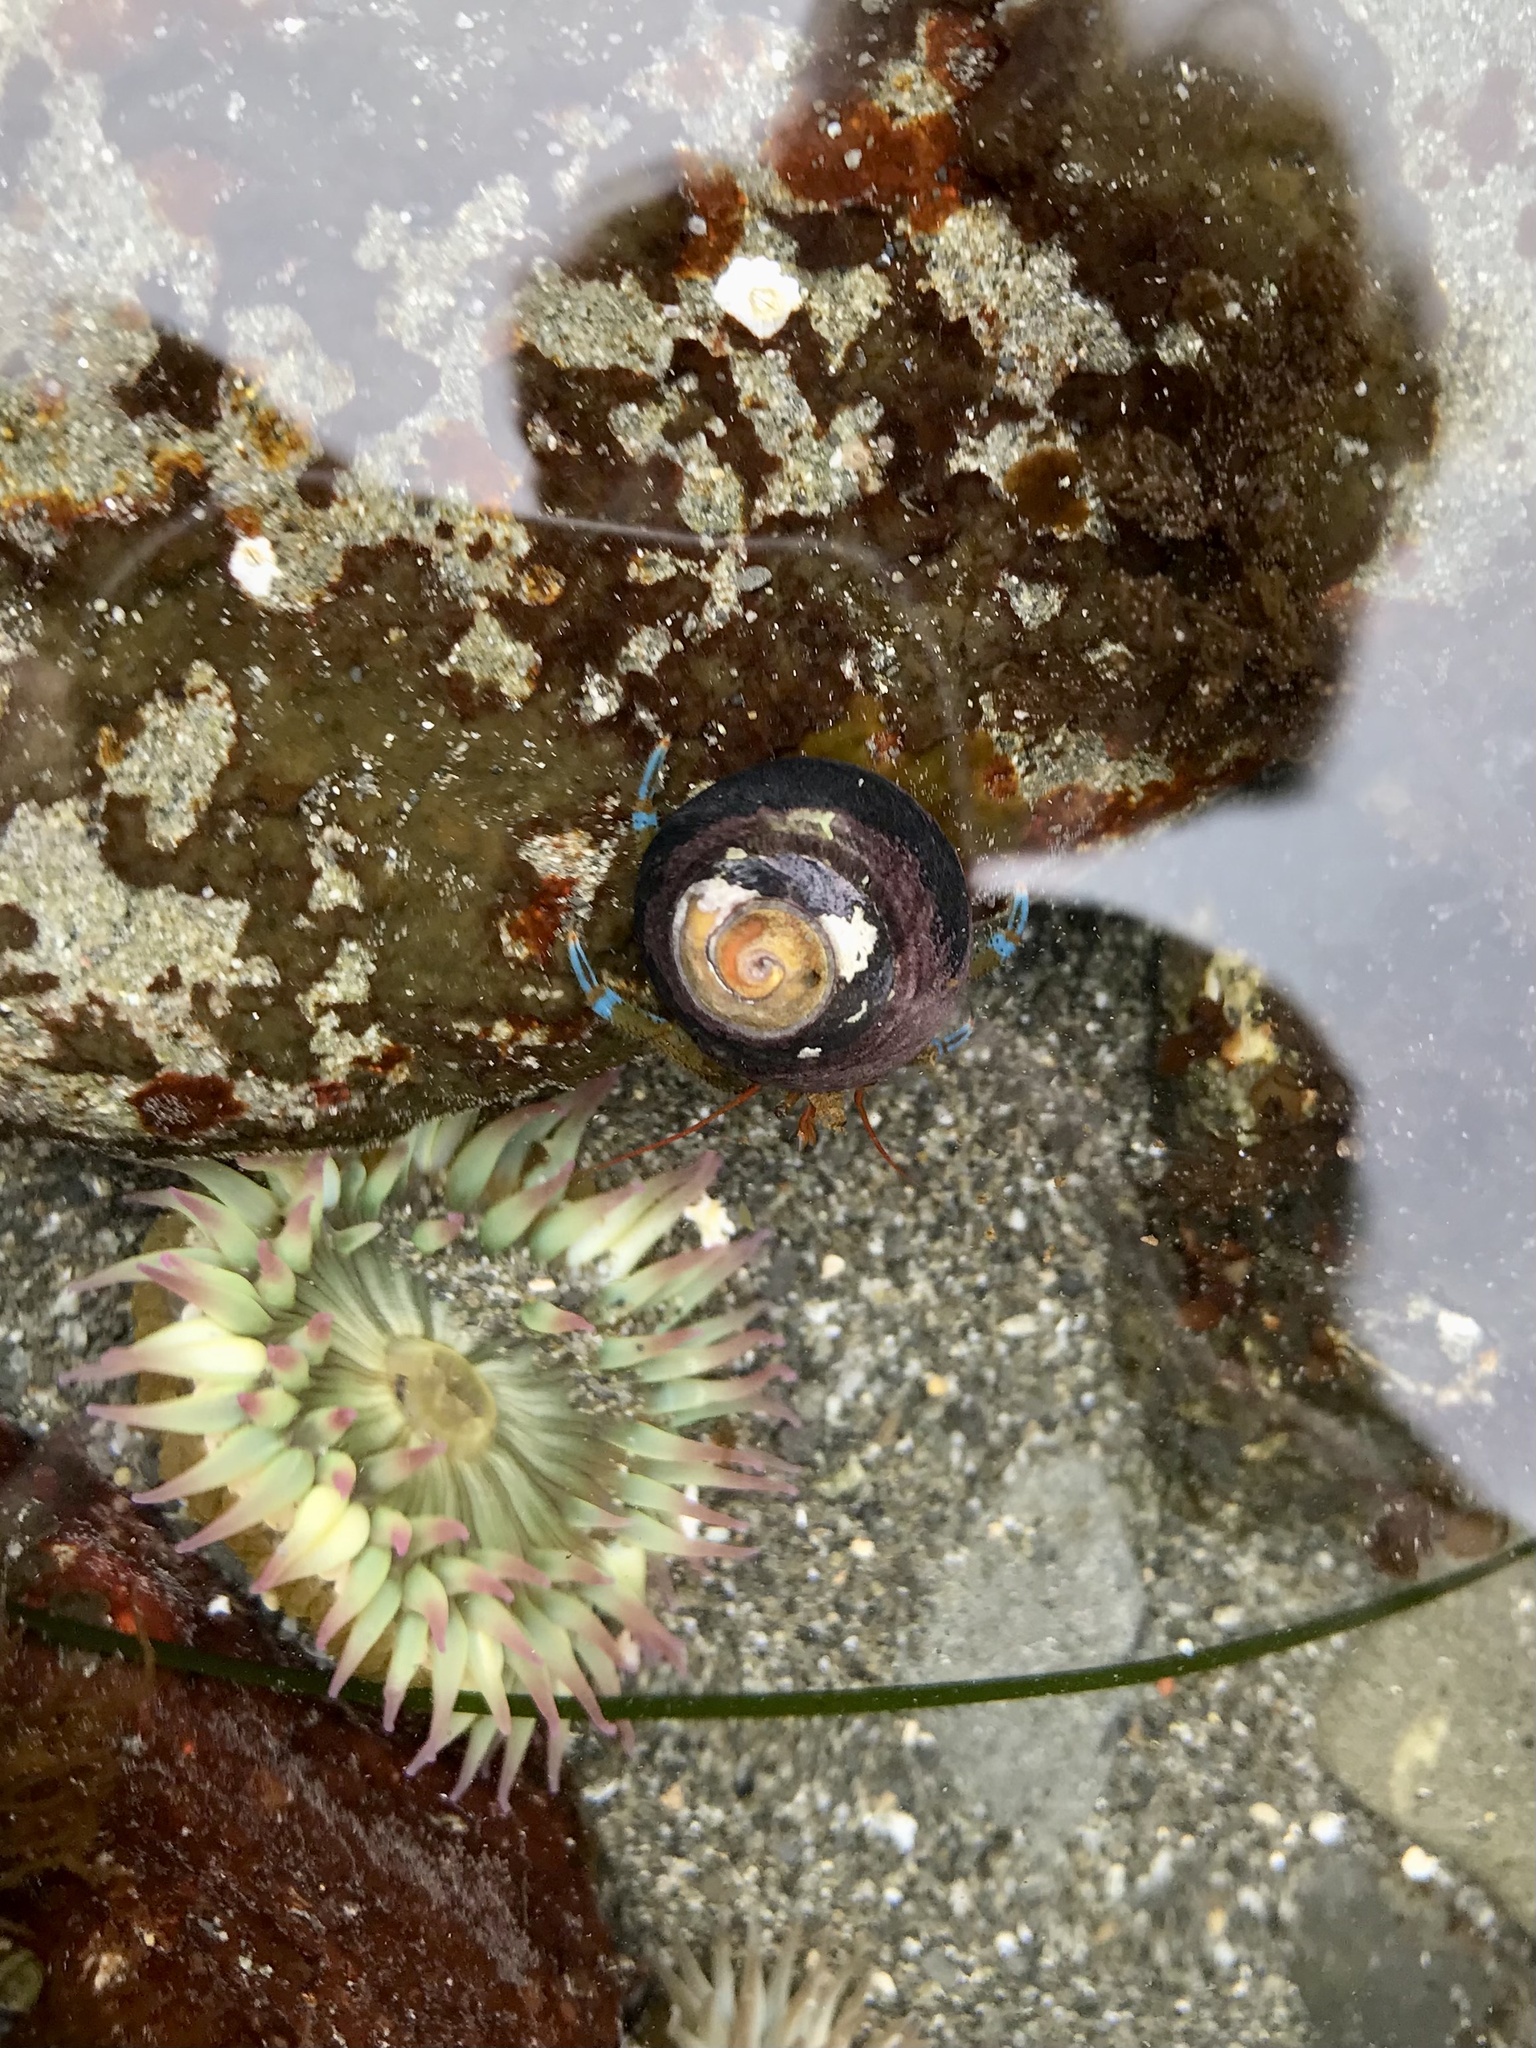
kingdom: Animalia
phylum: Arthropoda
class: Malacostraca
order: Decapoda
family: Paguridae
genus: Pagurus
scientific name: Pagurus samuelis
